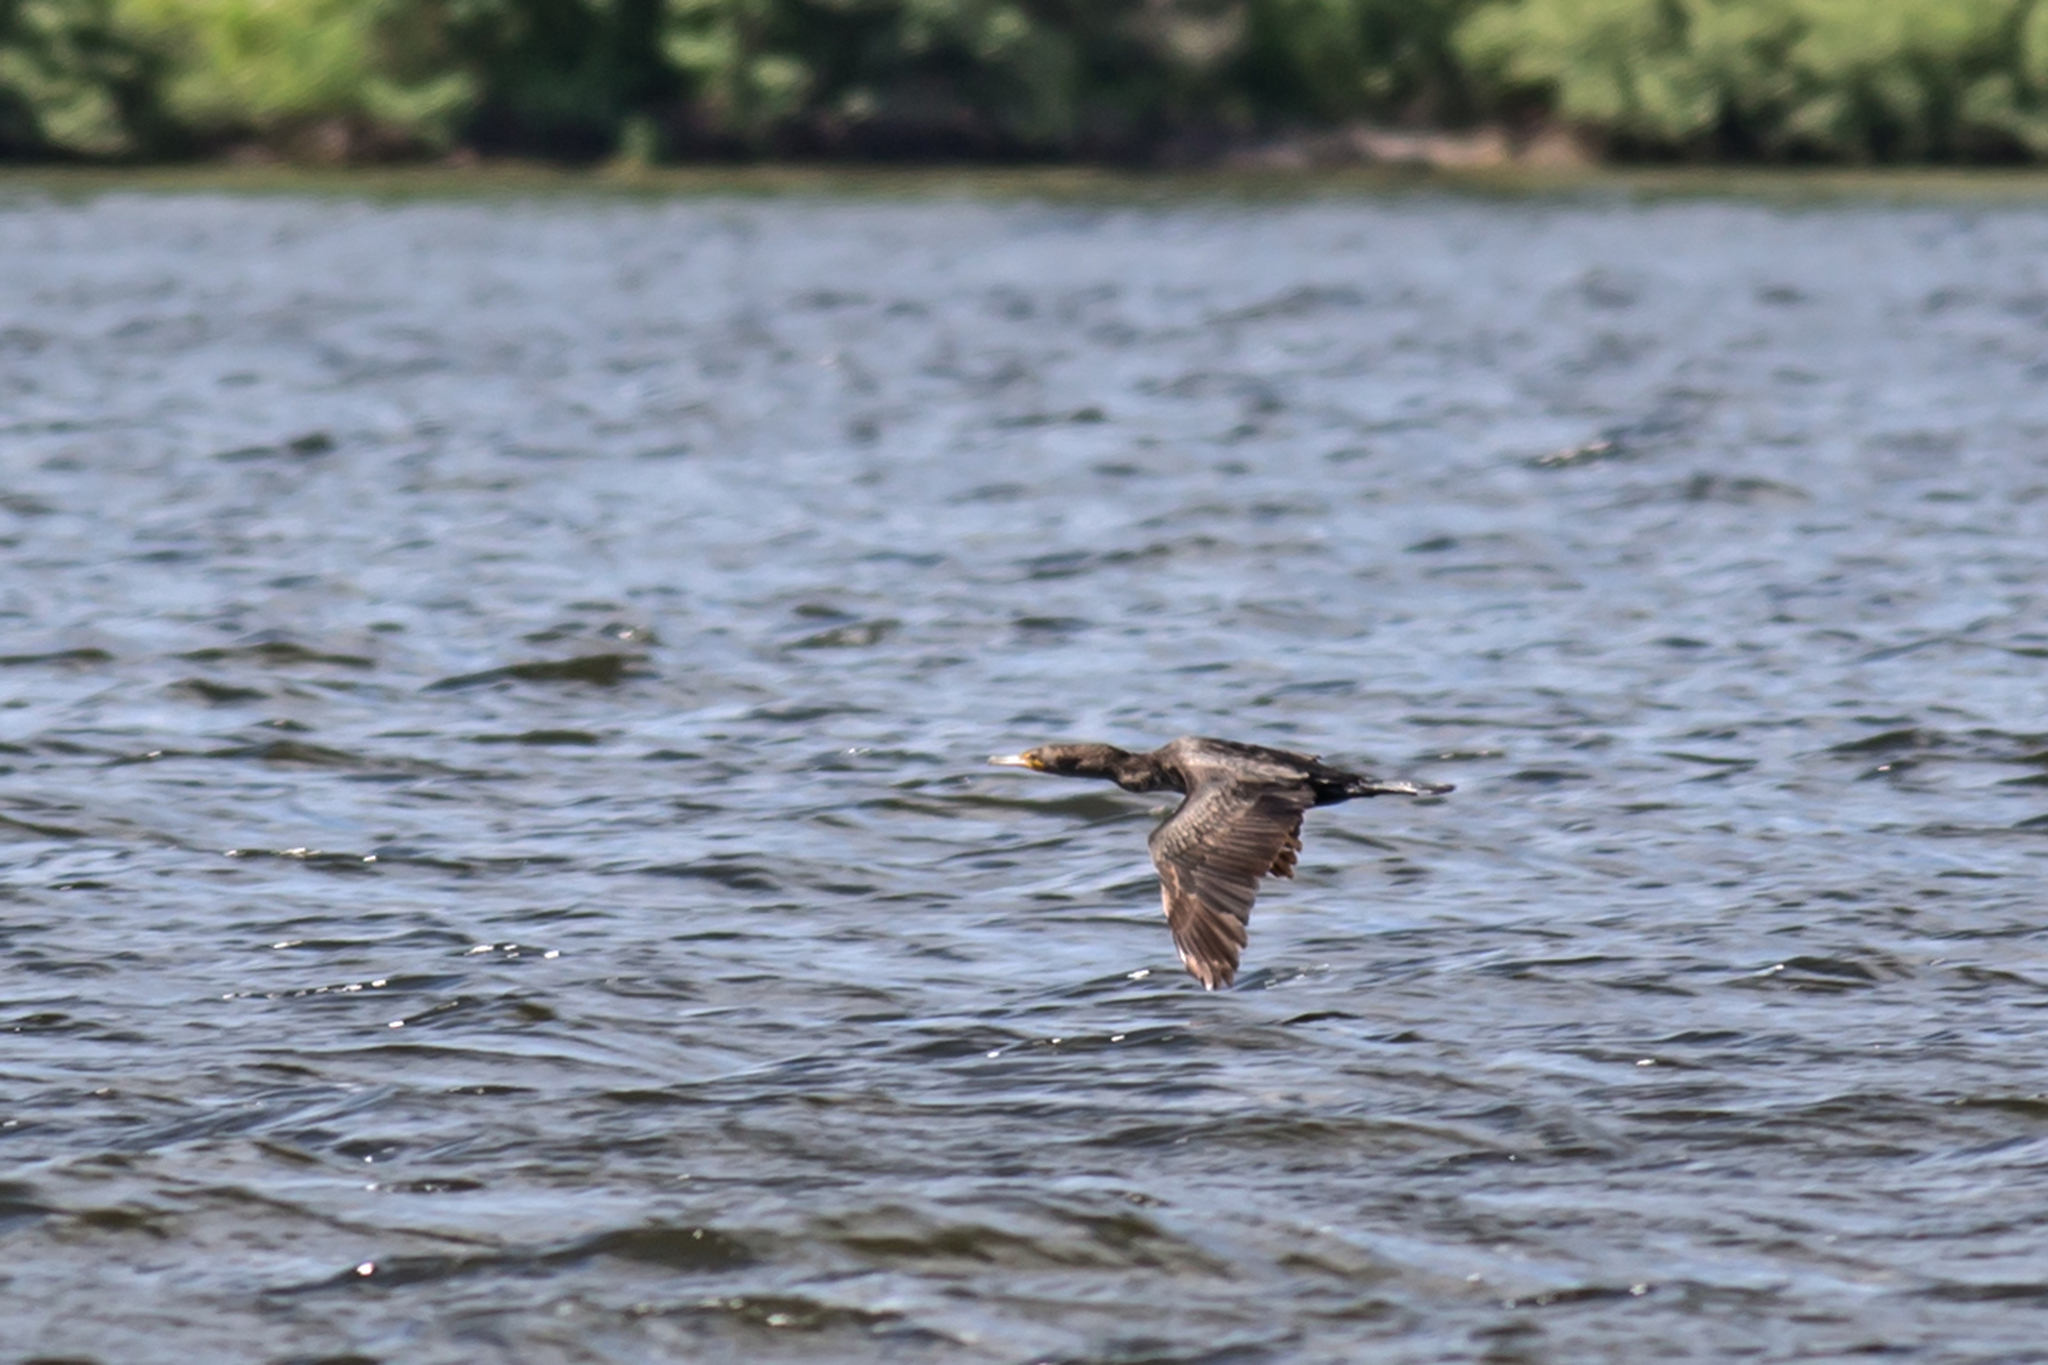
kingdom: Animalia
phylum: Chordata
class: Aves
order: Suliformes
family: Phalacrocoracidae
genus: Phalacrocorax
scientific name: Phalacrocorax auritus
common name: Double-crested cormorant
